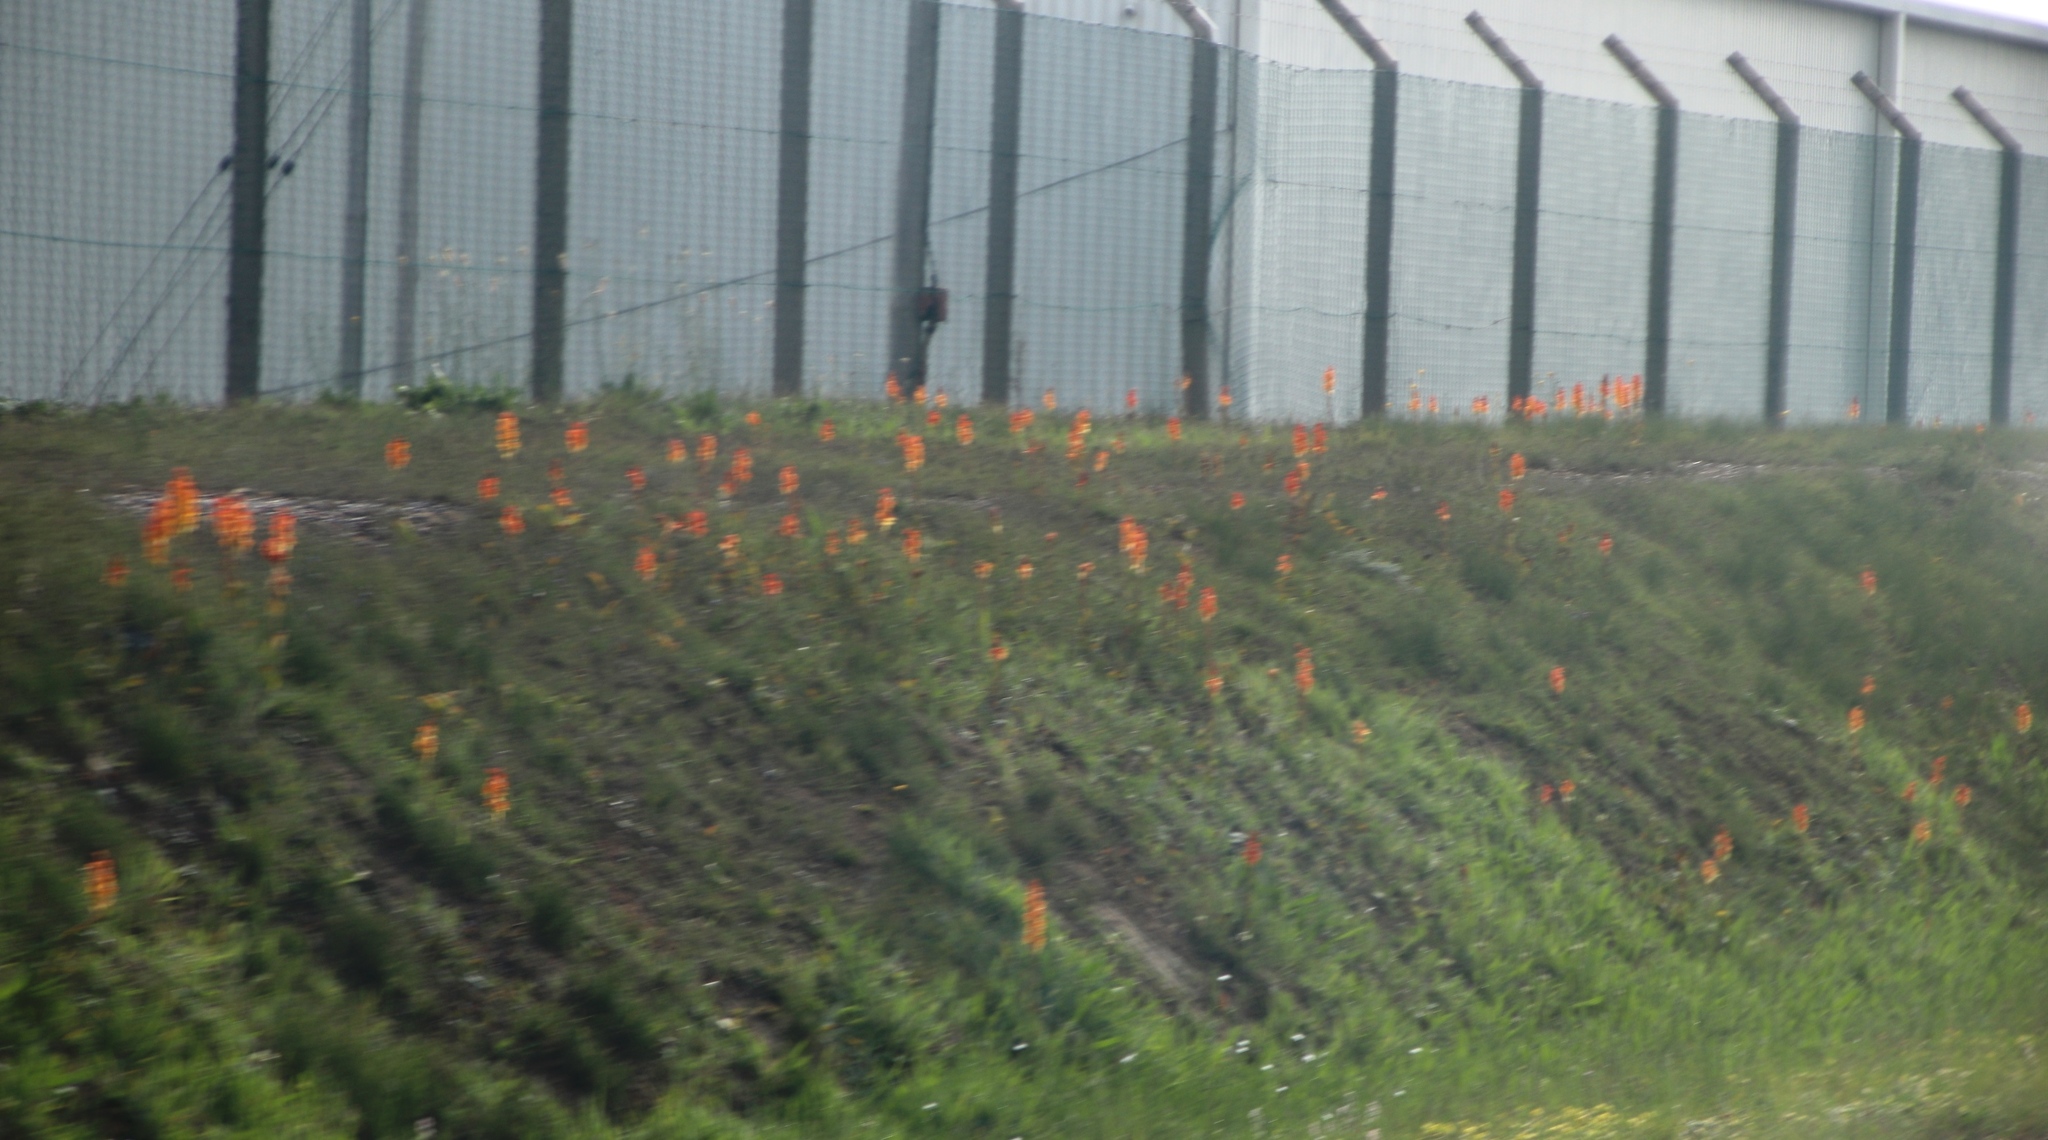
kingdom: Plantae
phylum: Tracheophyta
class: Liliopsida
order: Asparagales
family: Orchidaceae
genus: Satyrium
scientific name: Satyrium coriifolium
